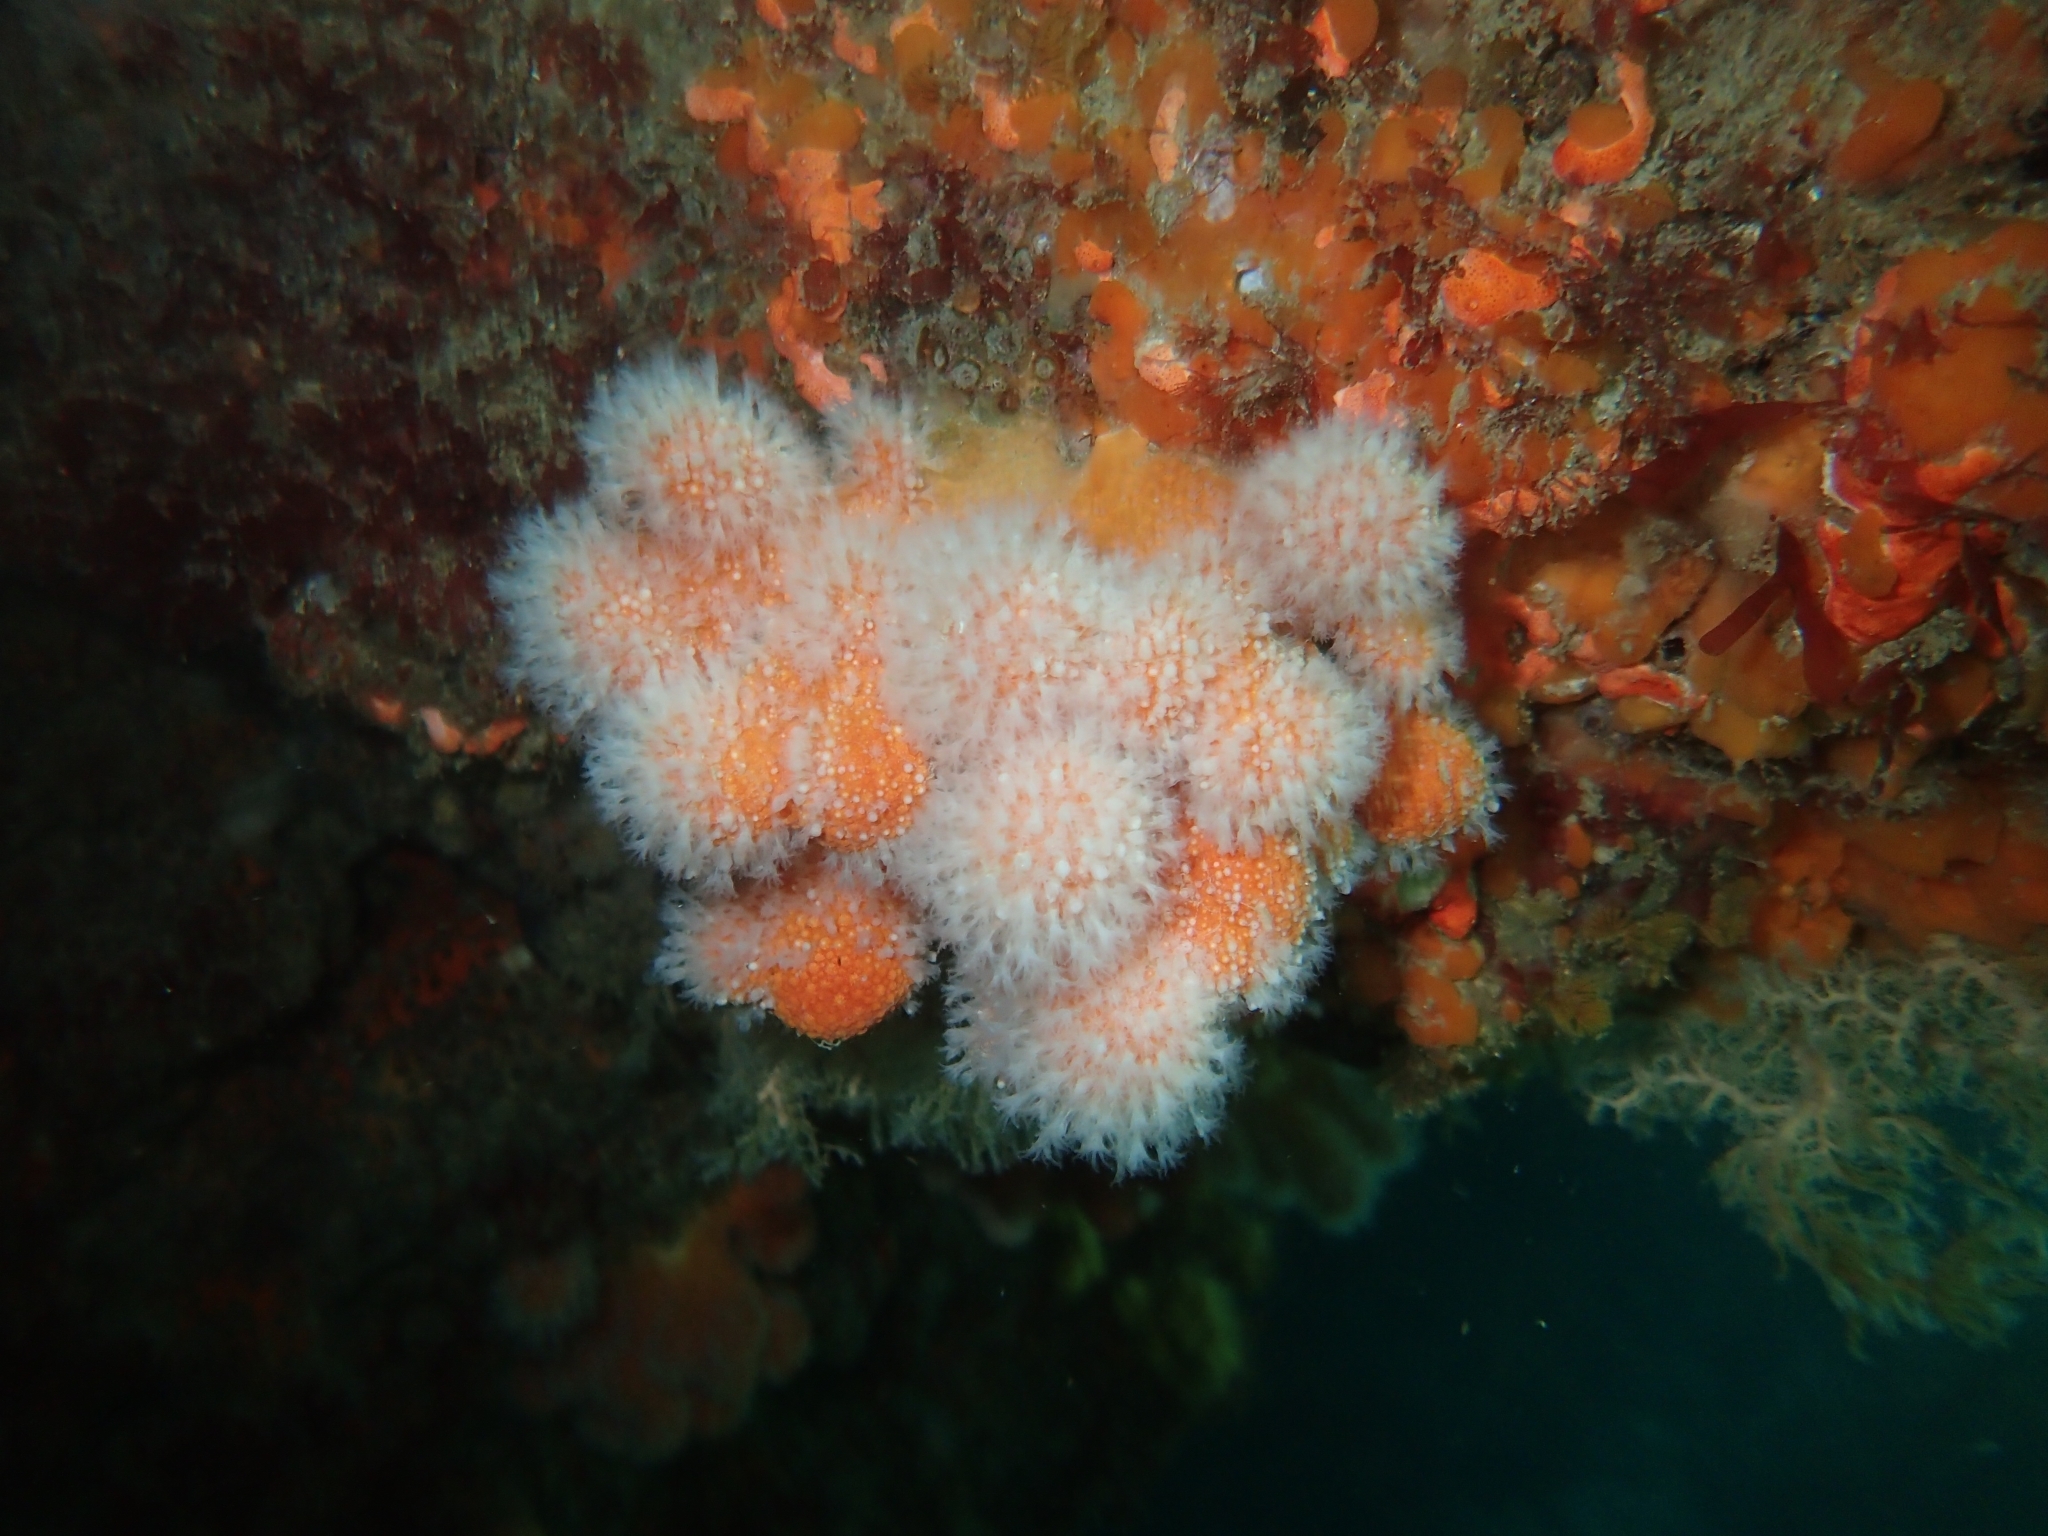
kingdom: Animalia
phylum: Cnidaria
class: Anthozoa
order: Malacalcyonacea
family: Alcyoniidae
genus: Kotatea
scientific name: Kotatea aurantiaca
